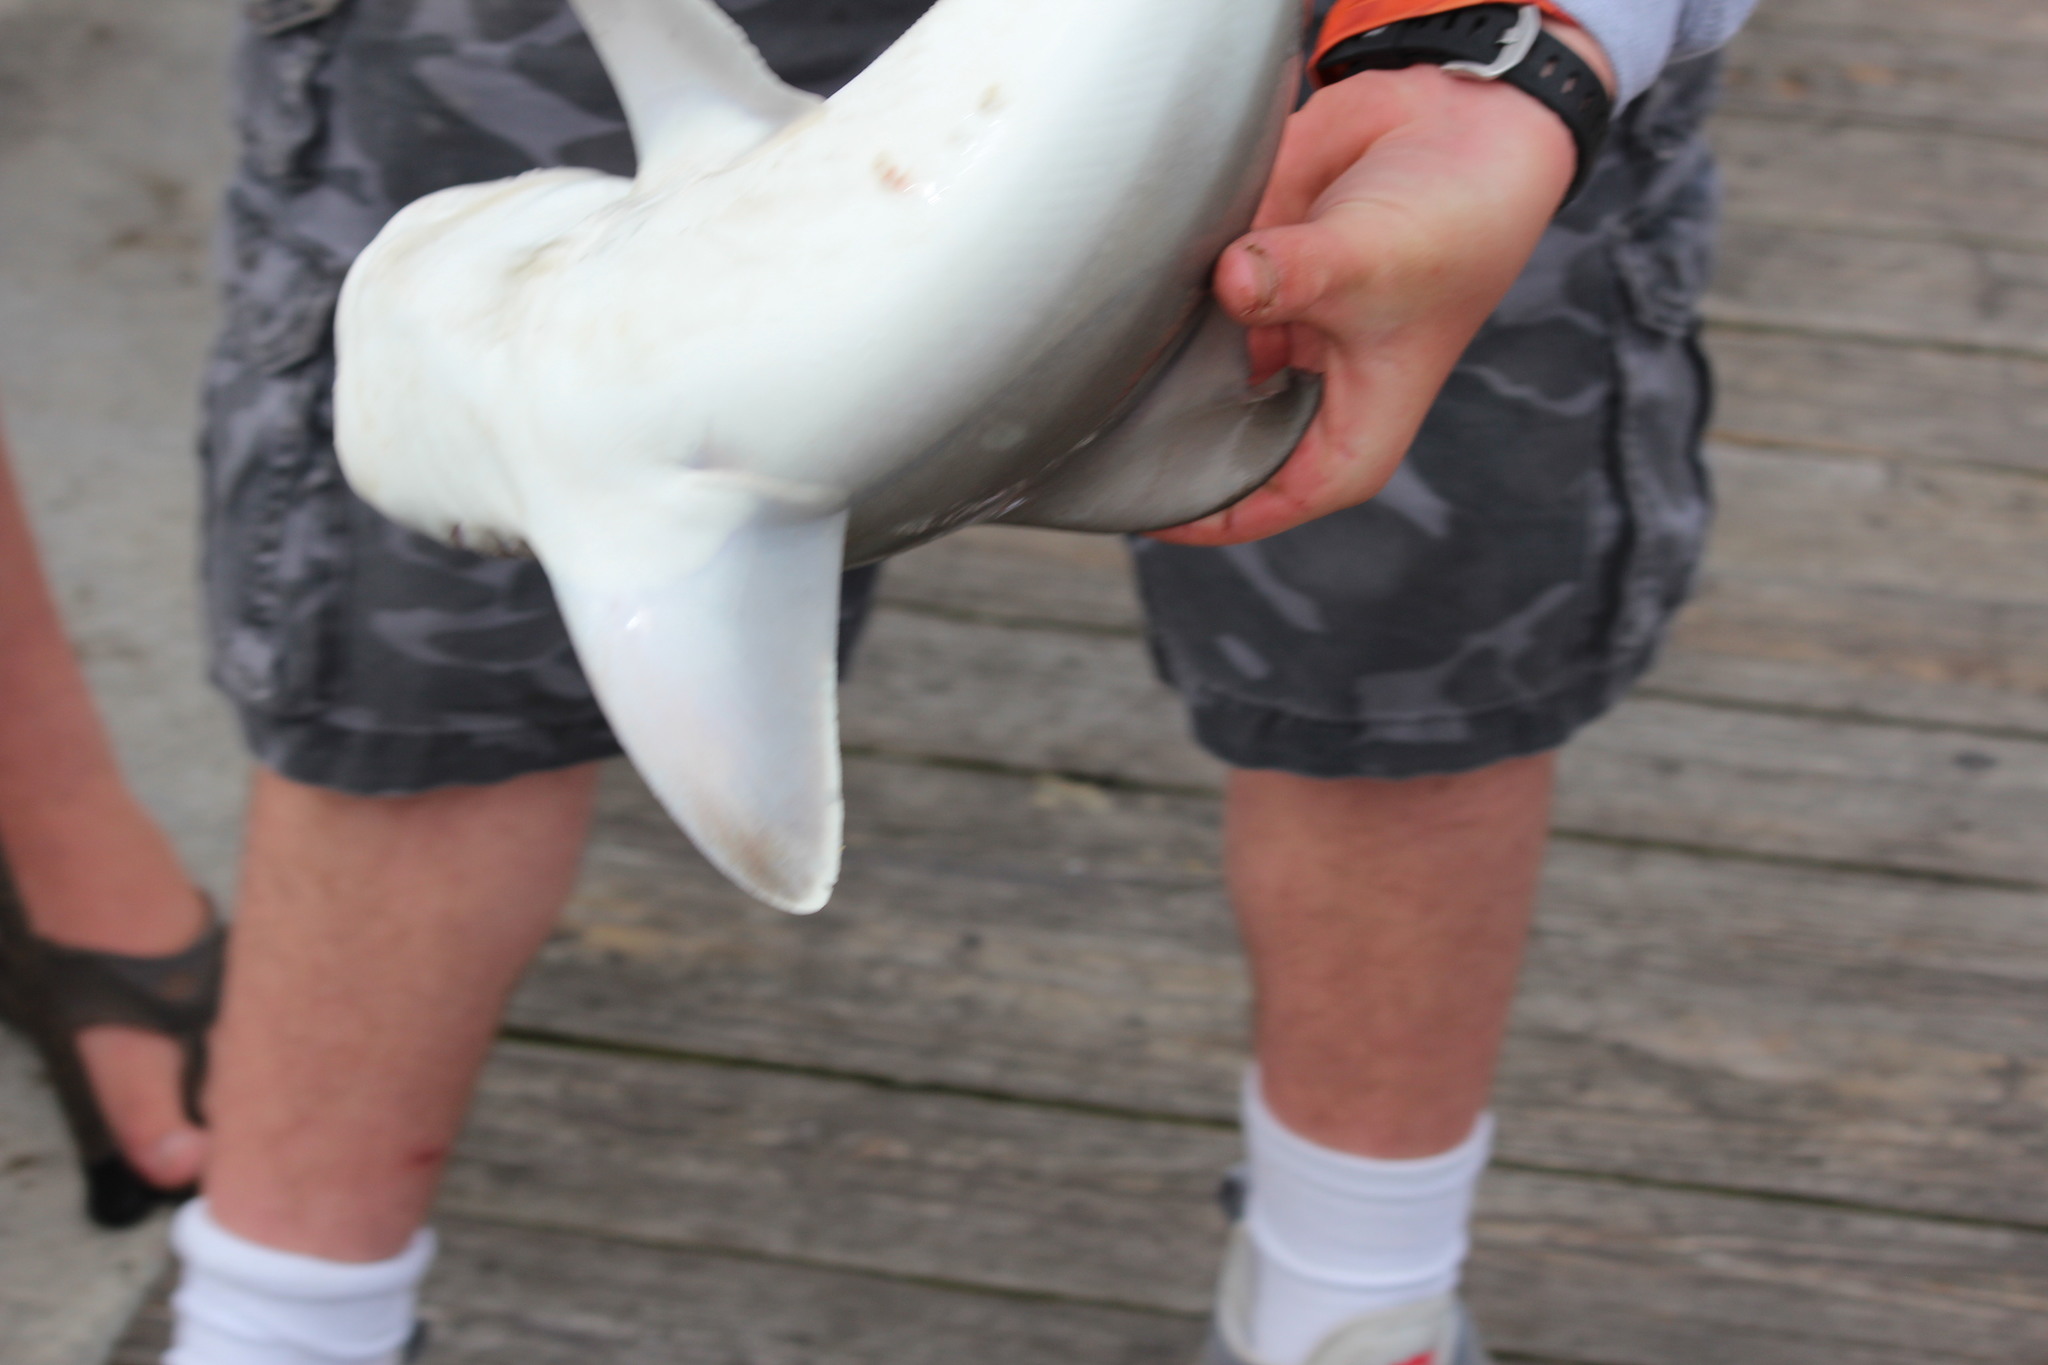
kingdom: Animalia
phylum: Chordata
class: Elasmobranchii
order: Carcharhiniformes
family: Carcharhinidae
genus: Carcharhinus
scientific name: Carcharhinus plumbeus
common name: Sandbar shark
